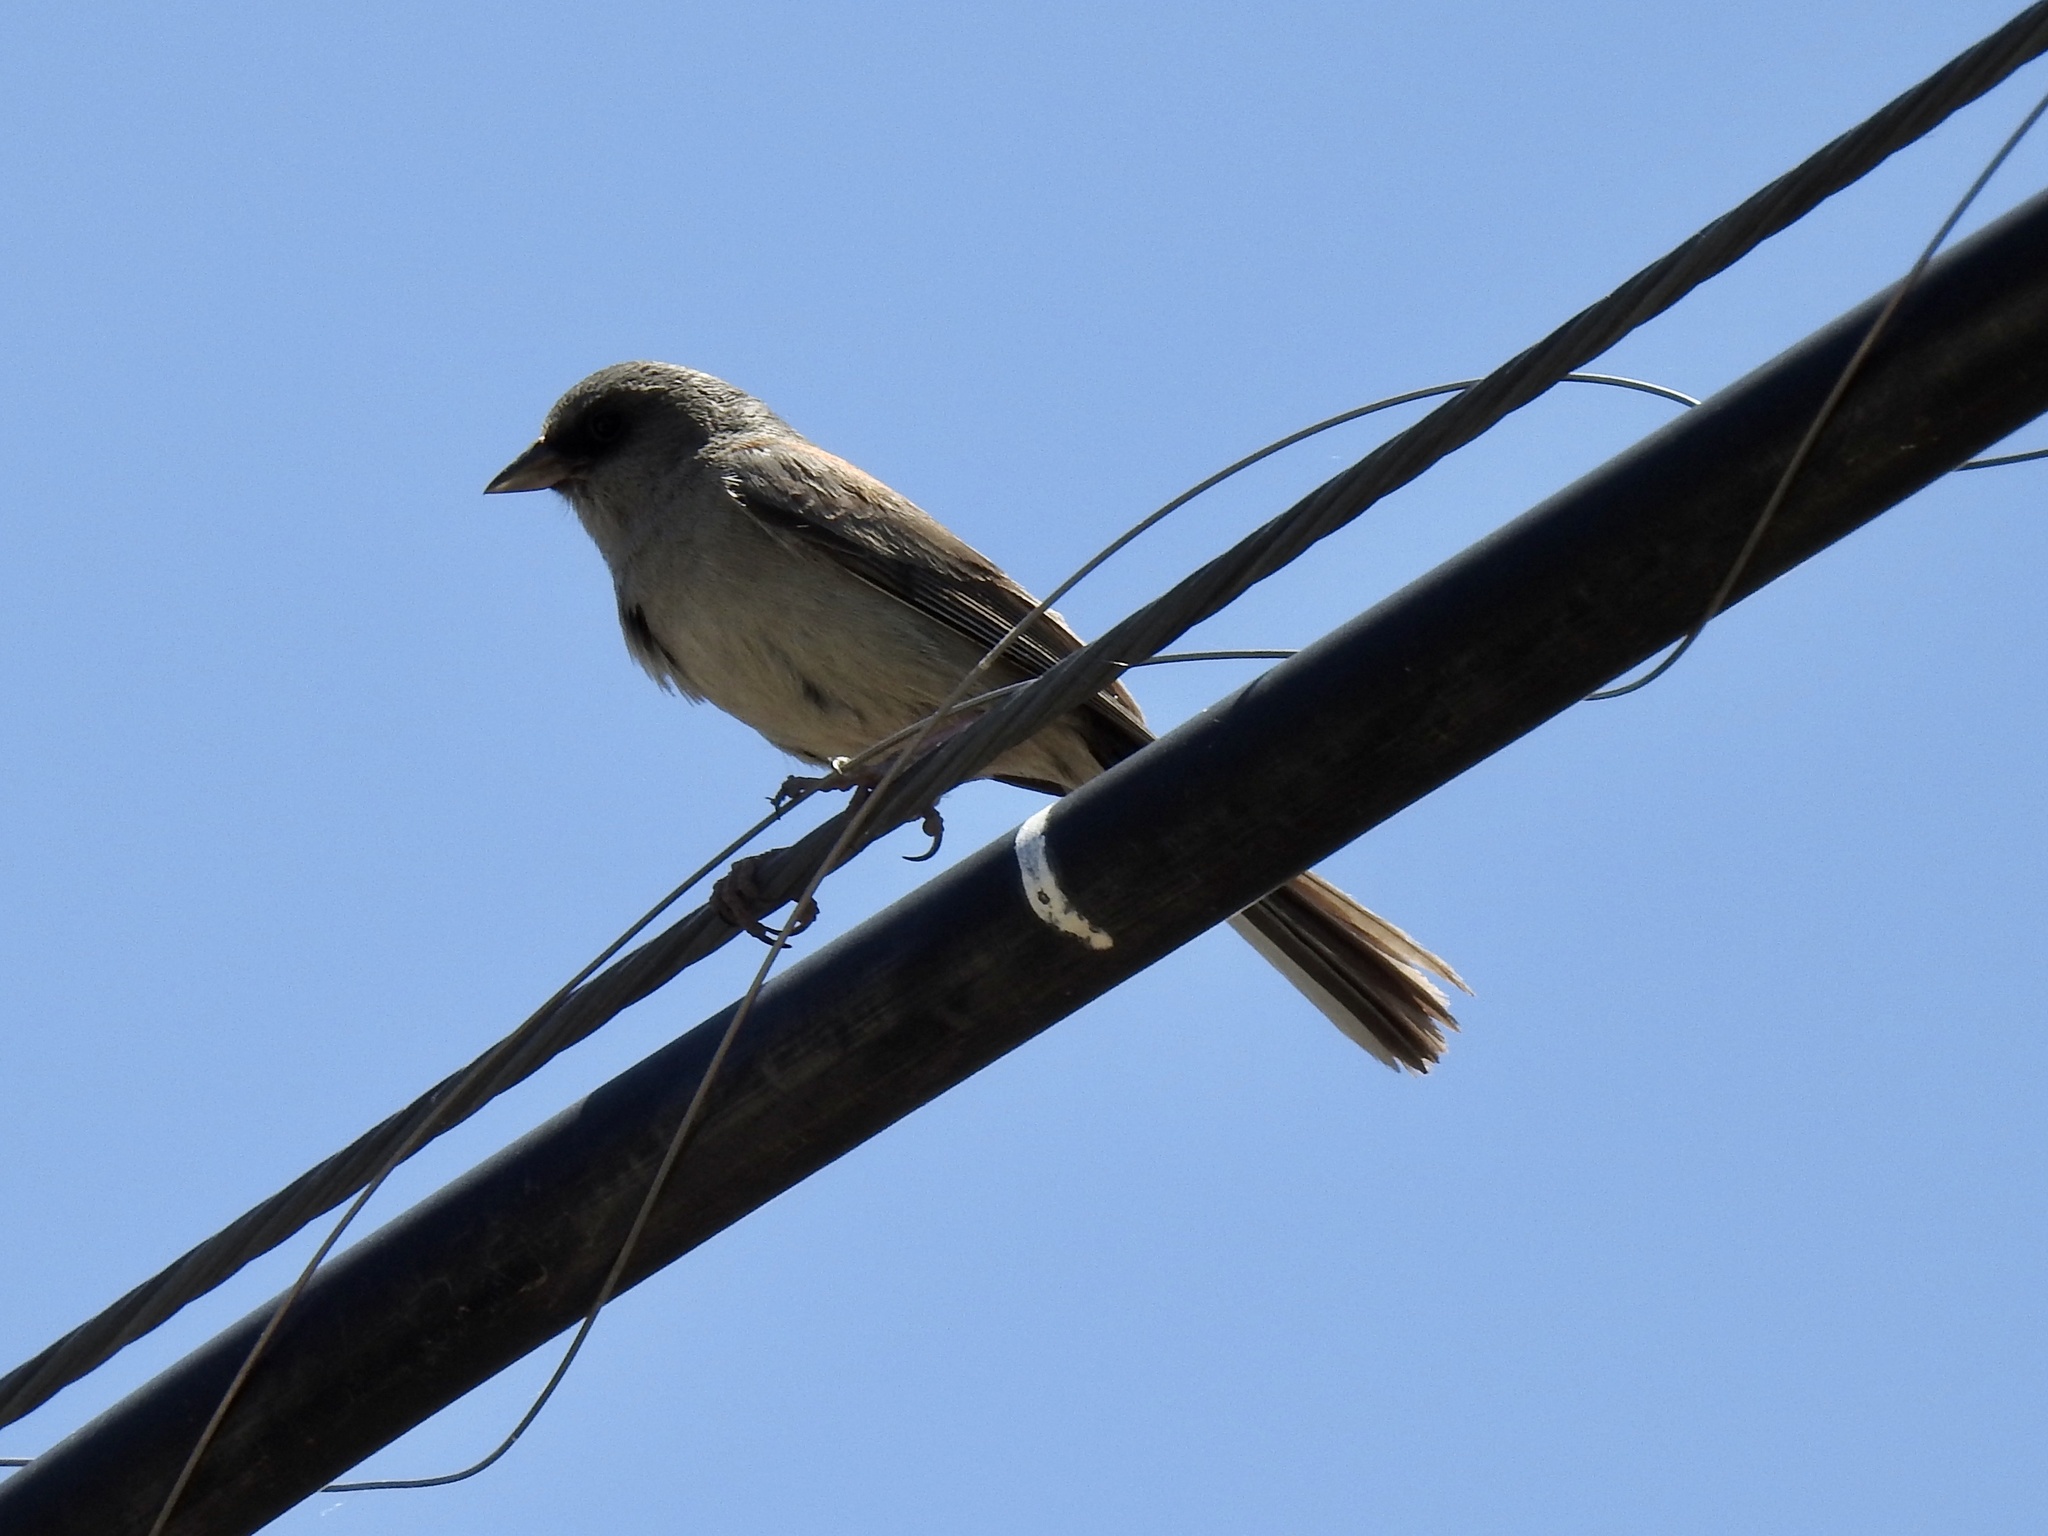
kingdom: Animalia
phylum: Chordata
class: Aves
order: Passeriformes
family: Passerellidae
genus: Junco
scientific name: Junco hyemalis
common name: Dark-eyed junco
